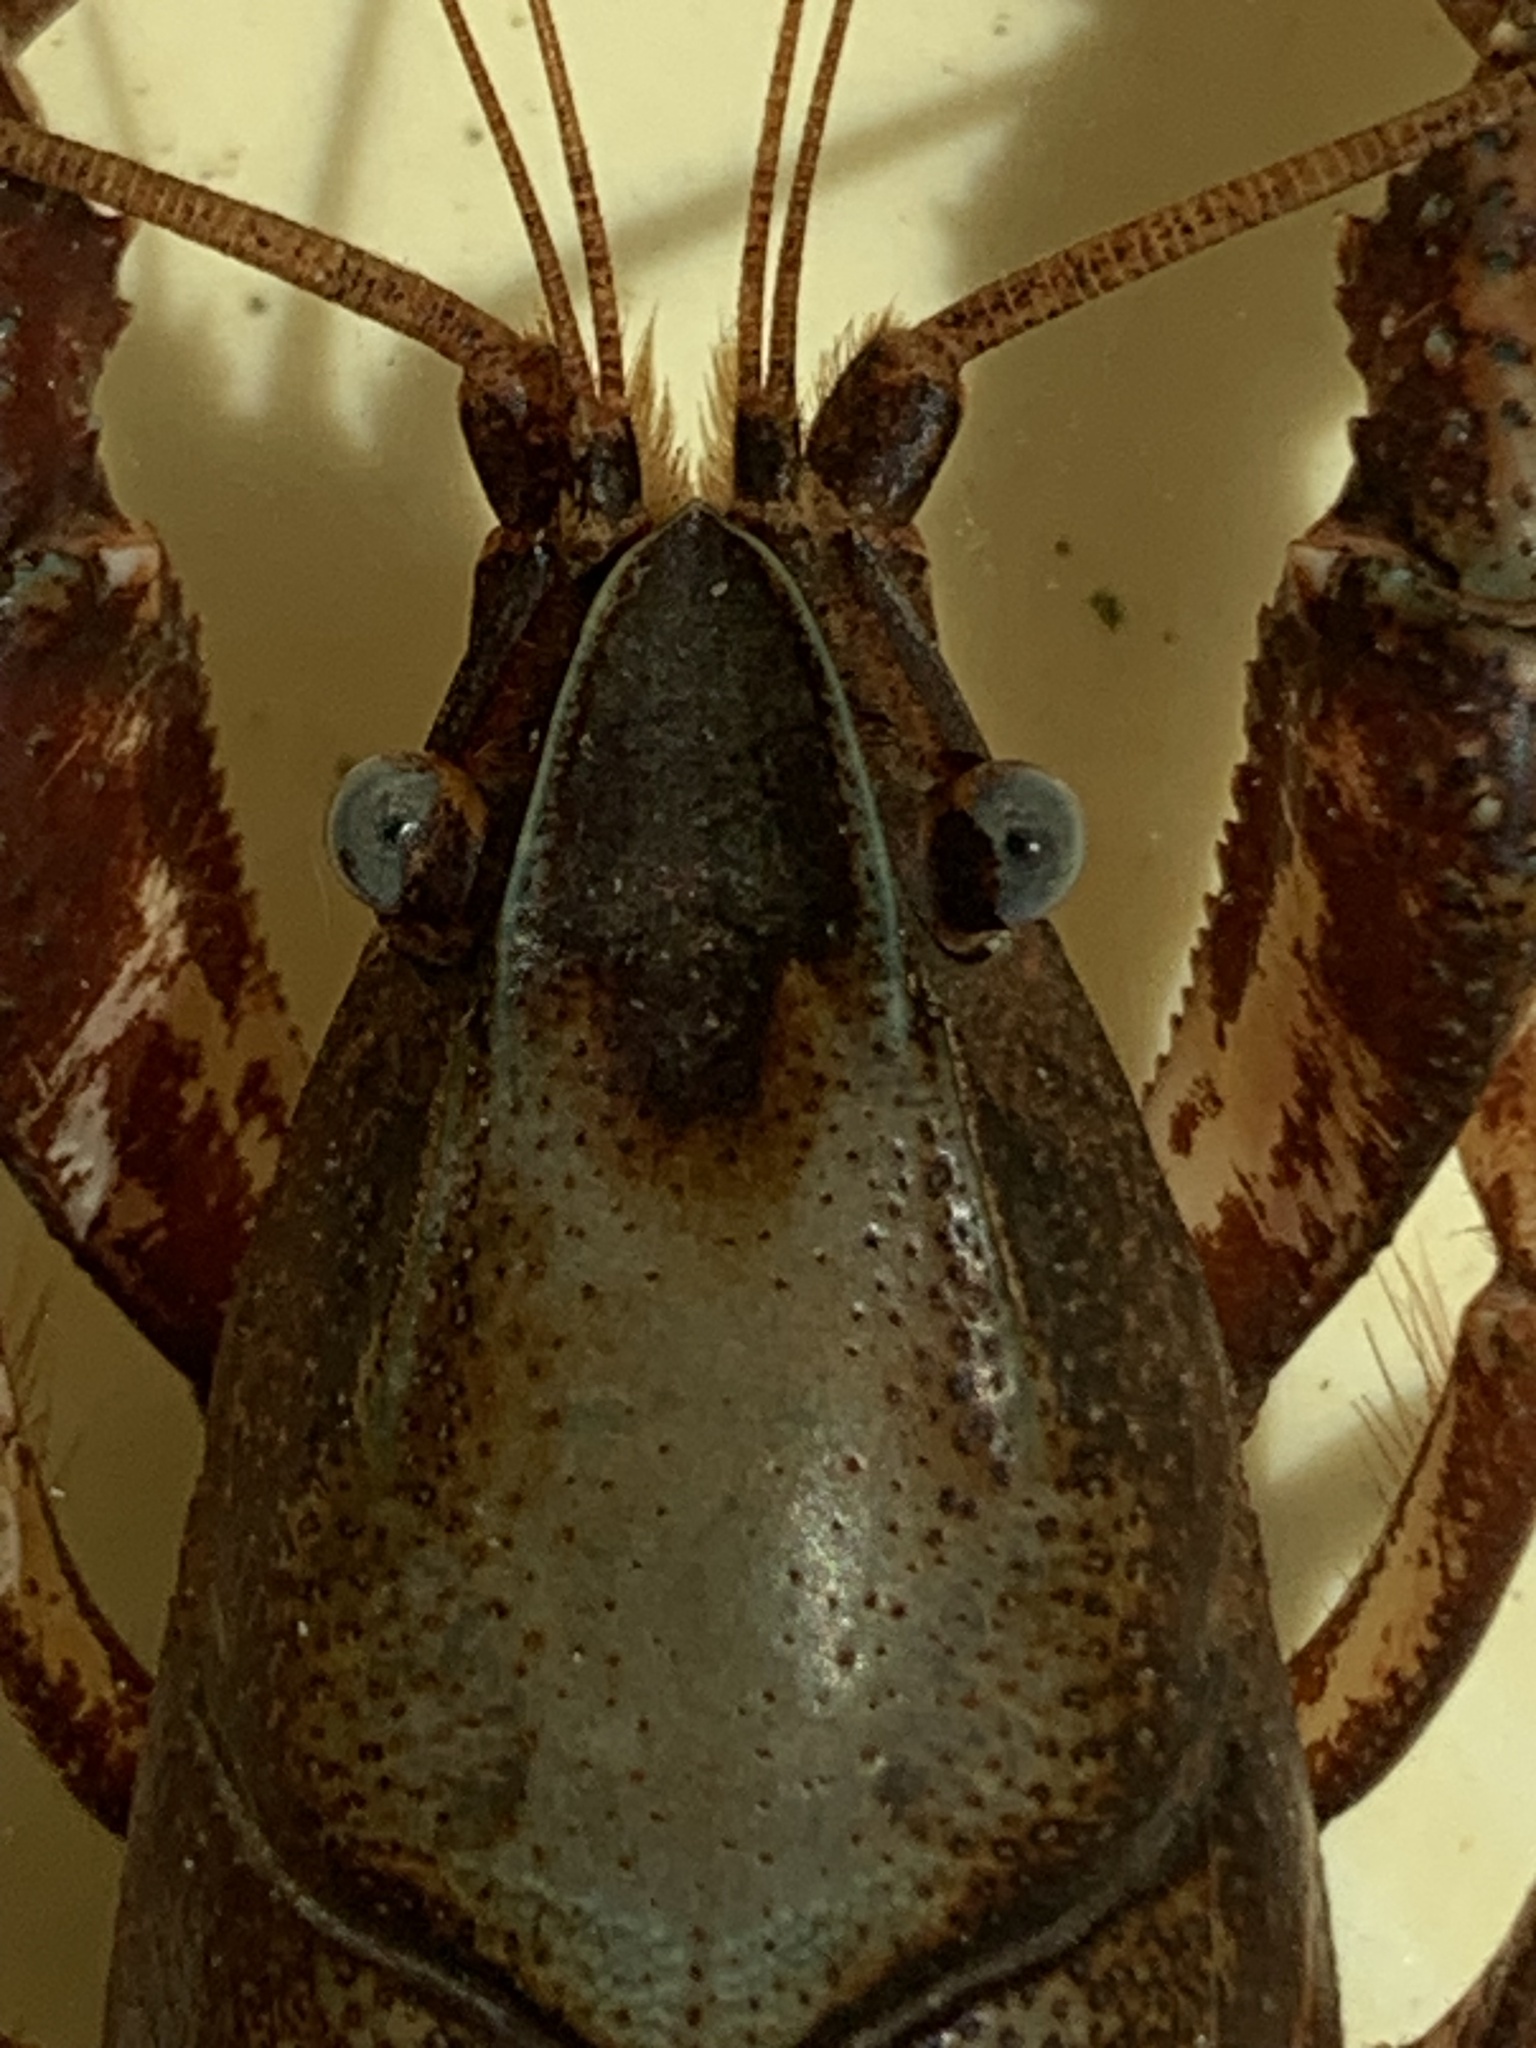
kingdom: Animalia
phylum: Arthropoda
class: Malacostraca
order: Decapoda
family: Cambaridae
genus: Procambarus
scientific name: Procambarus curdi
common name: Red river burrowing crayfish
